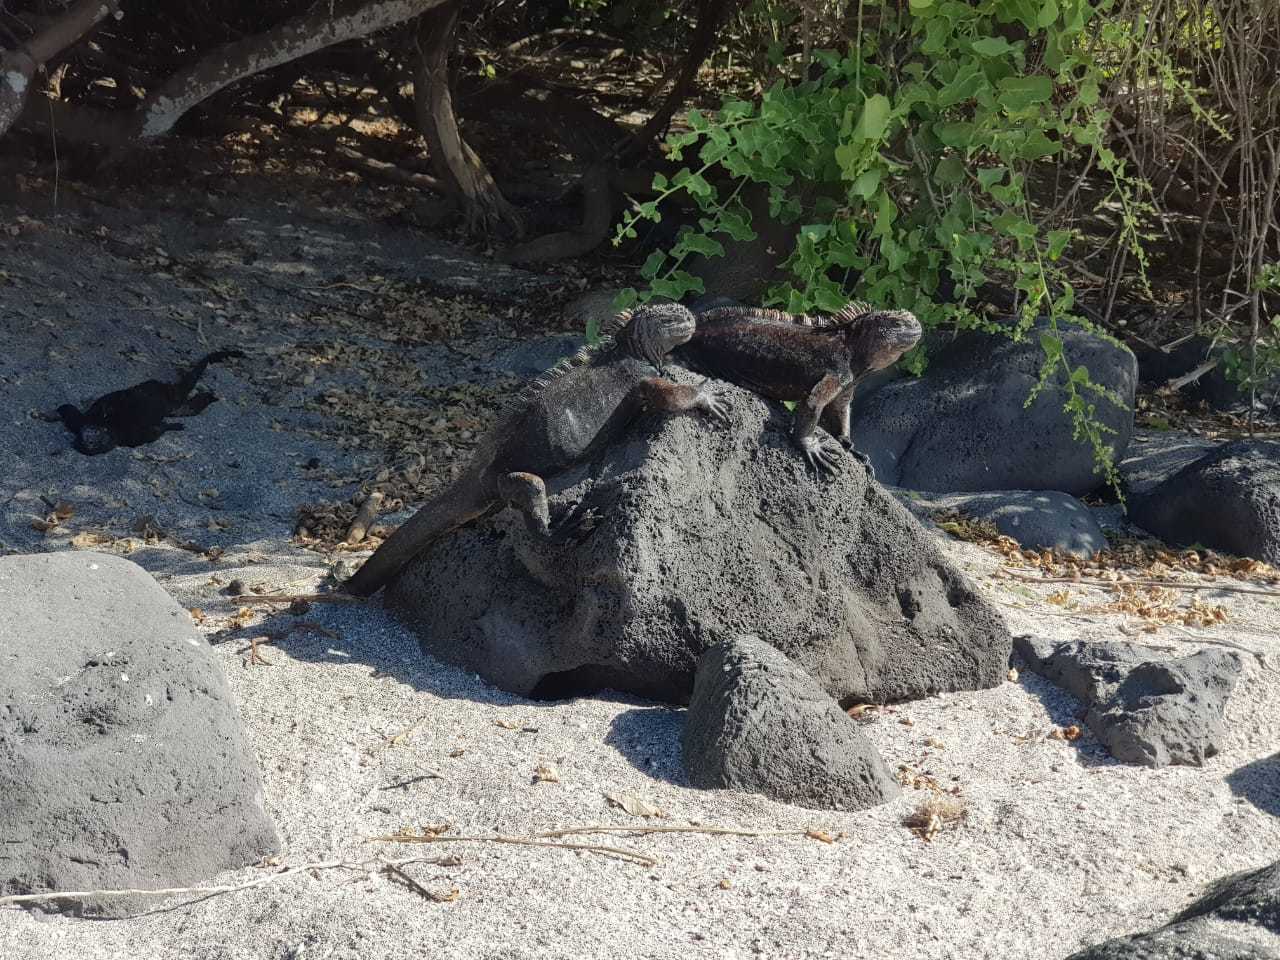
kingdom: Animalia
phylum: Chordata
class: Squamata
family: Iguanidae
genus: Amblyrhynchus
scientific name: Amblyrhynchus cristatus
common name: Marine iguana
